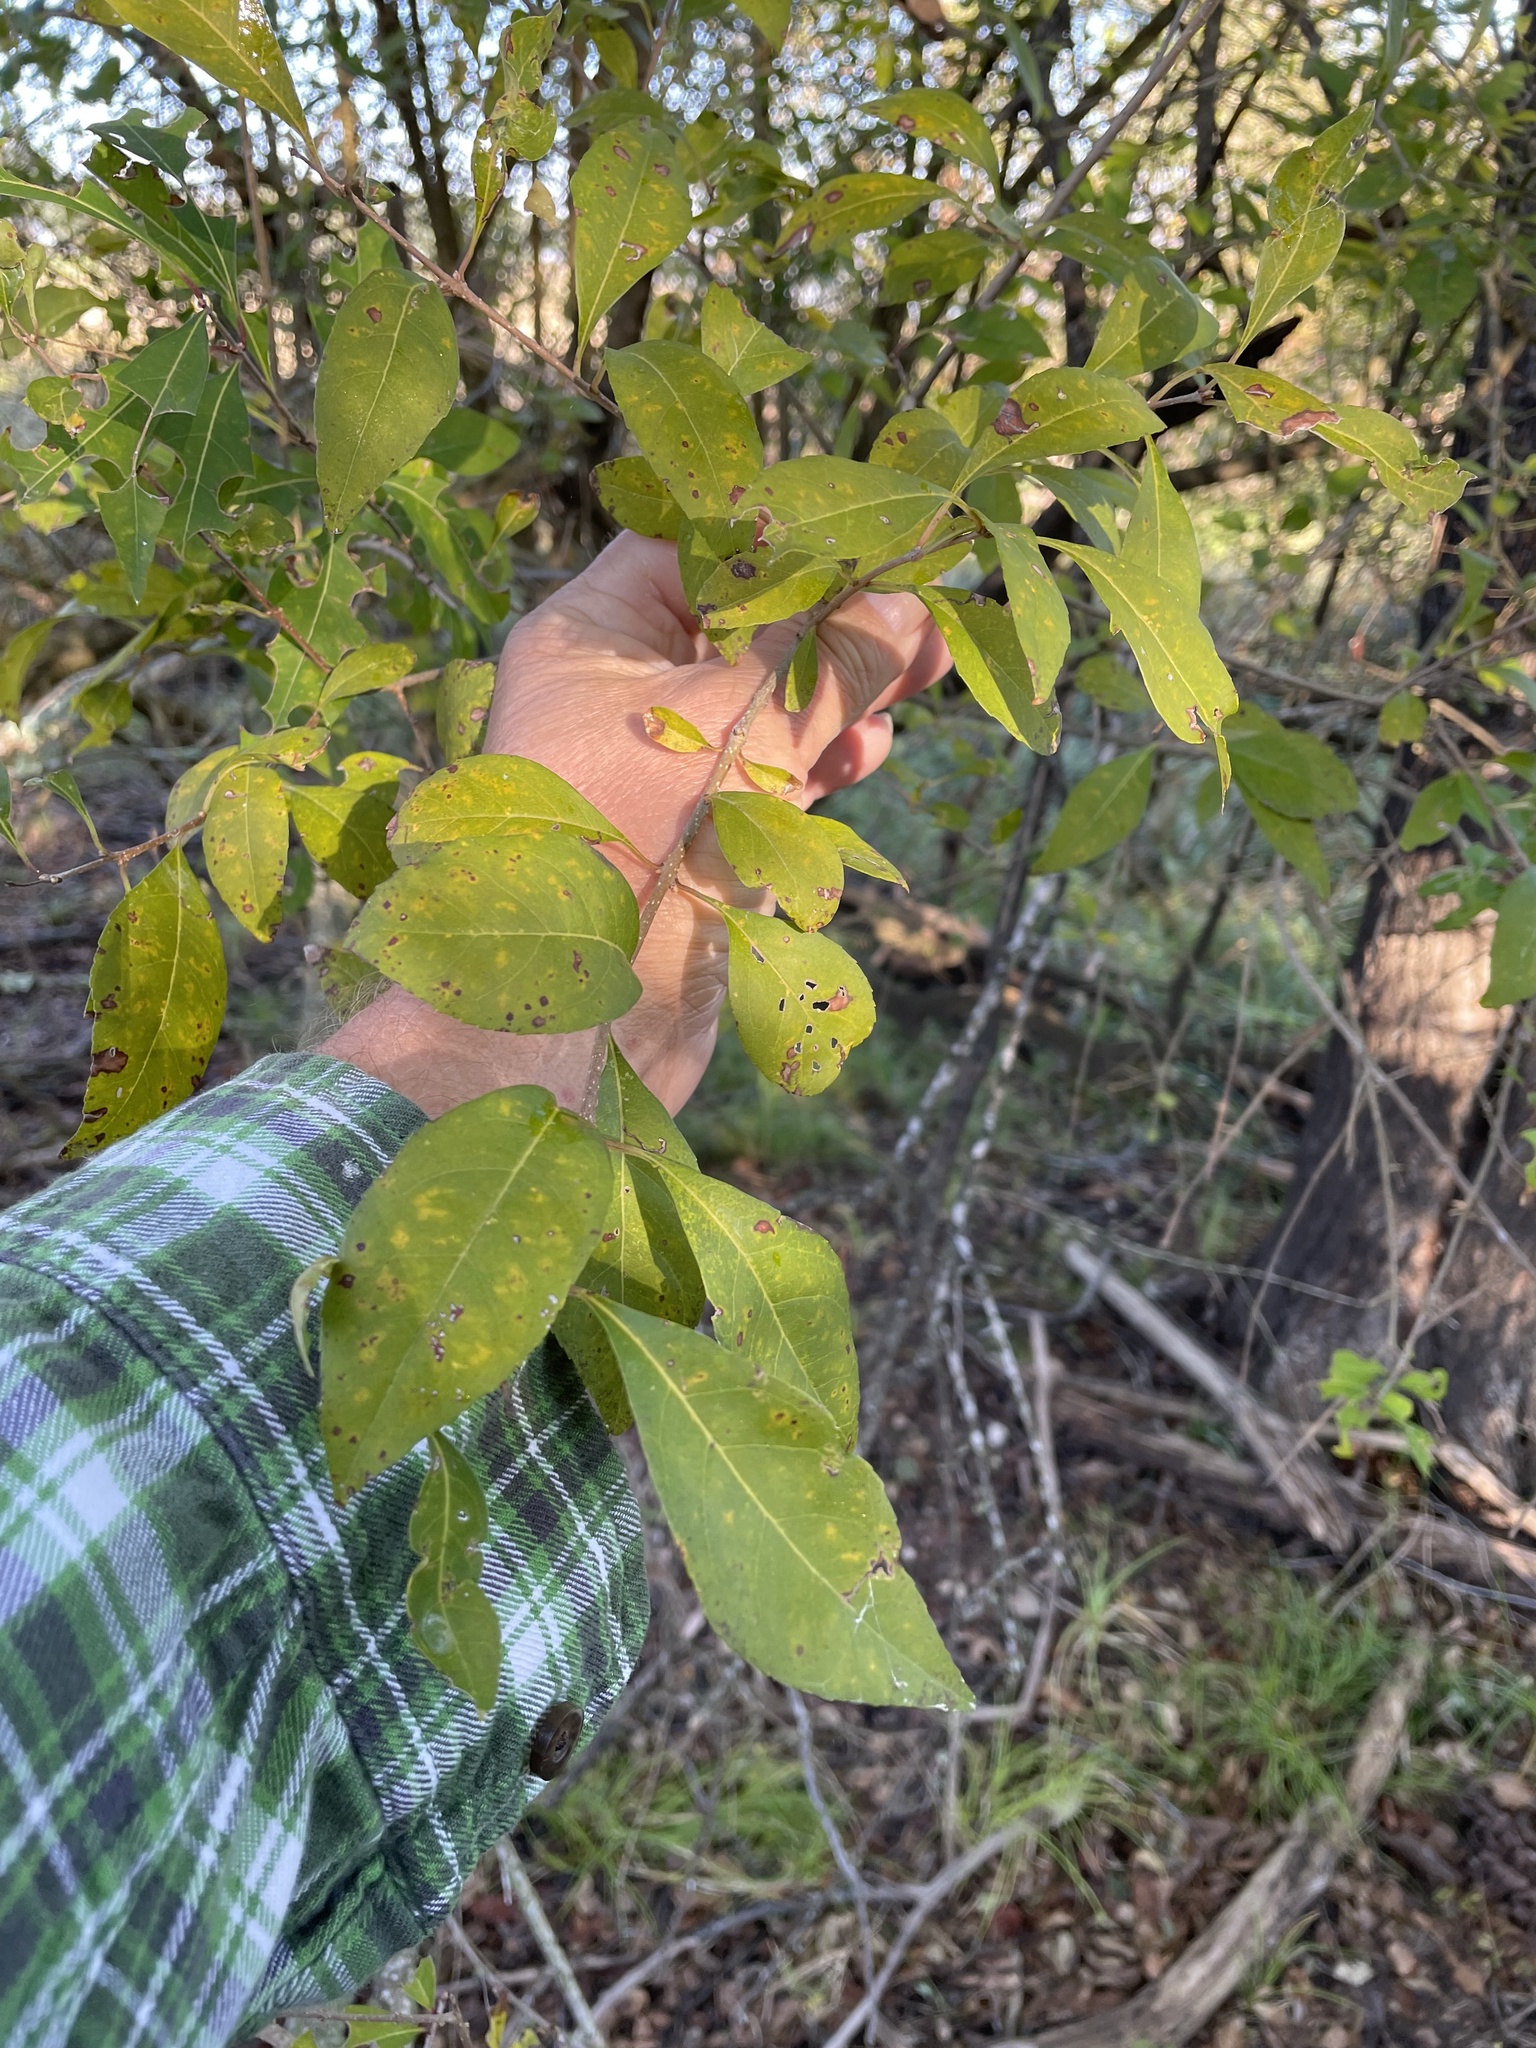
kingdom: Plantae
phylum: Tracheophyta
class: Magnoliopsida
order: Lamiales
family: Oleaceae
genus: Forestiera
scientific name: Forestiera acuminata
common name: Swamp-privet
